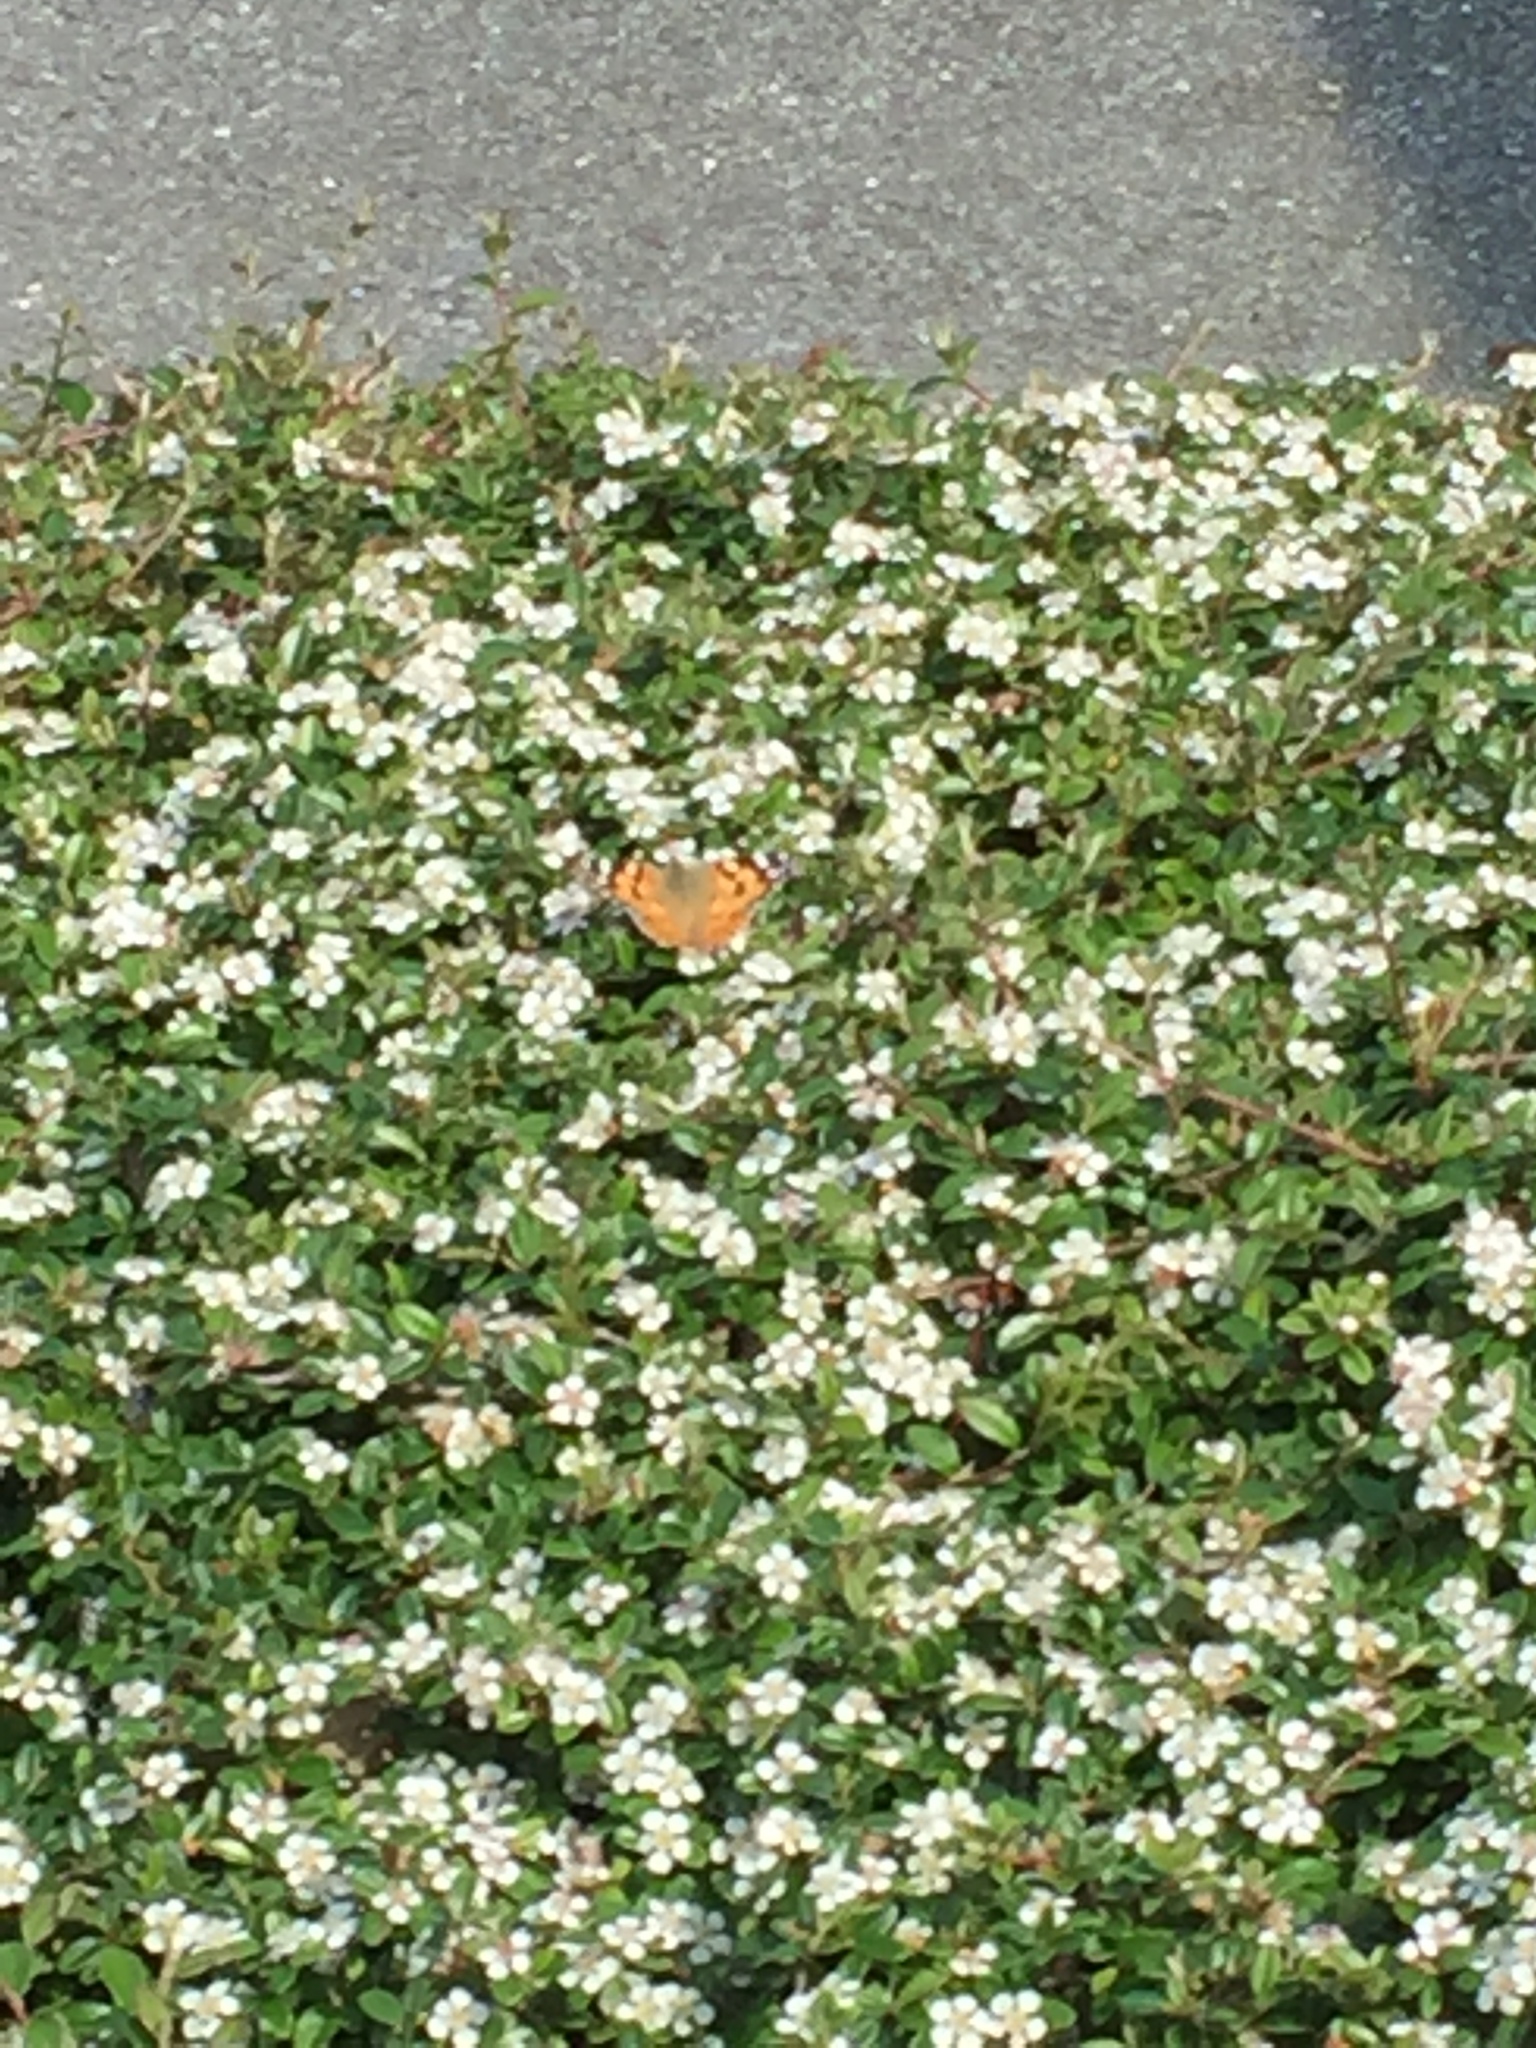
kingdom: Animalia
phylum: Arthropoda
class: Insecta
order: Lepidoptera
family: Nymphalidae
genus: Vanessa
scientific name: Vanessa cardui
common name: Painted lady
